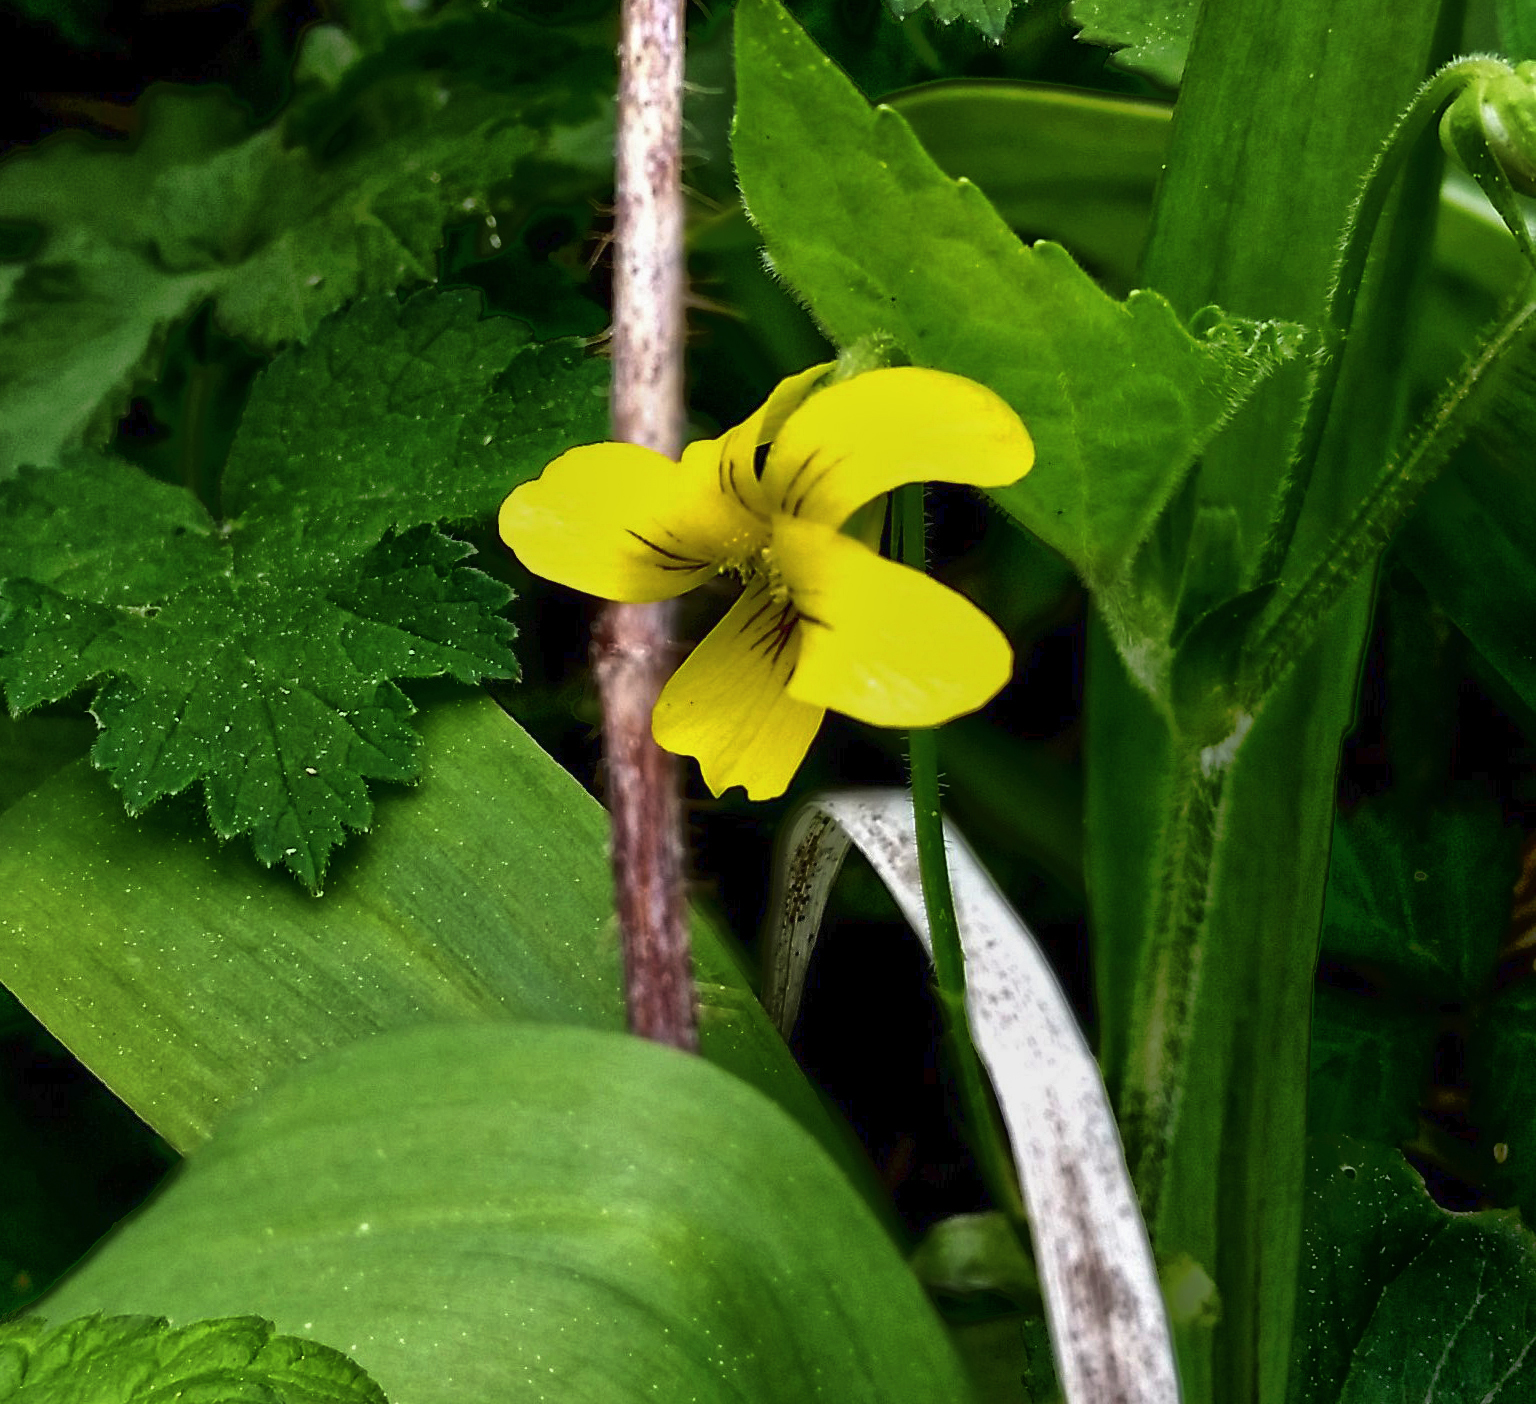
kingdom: Plantae
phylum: Tracheophyta
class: Magnoliopsida
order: Malpighiales
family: Violaceae
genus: Viola
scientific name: Viola eriocarpa
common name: Smooth yellow violet
